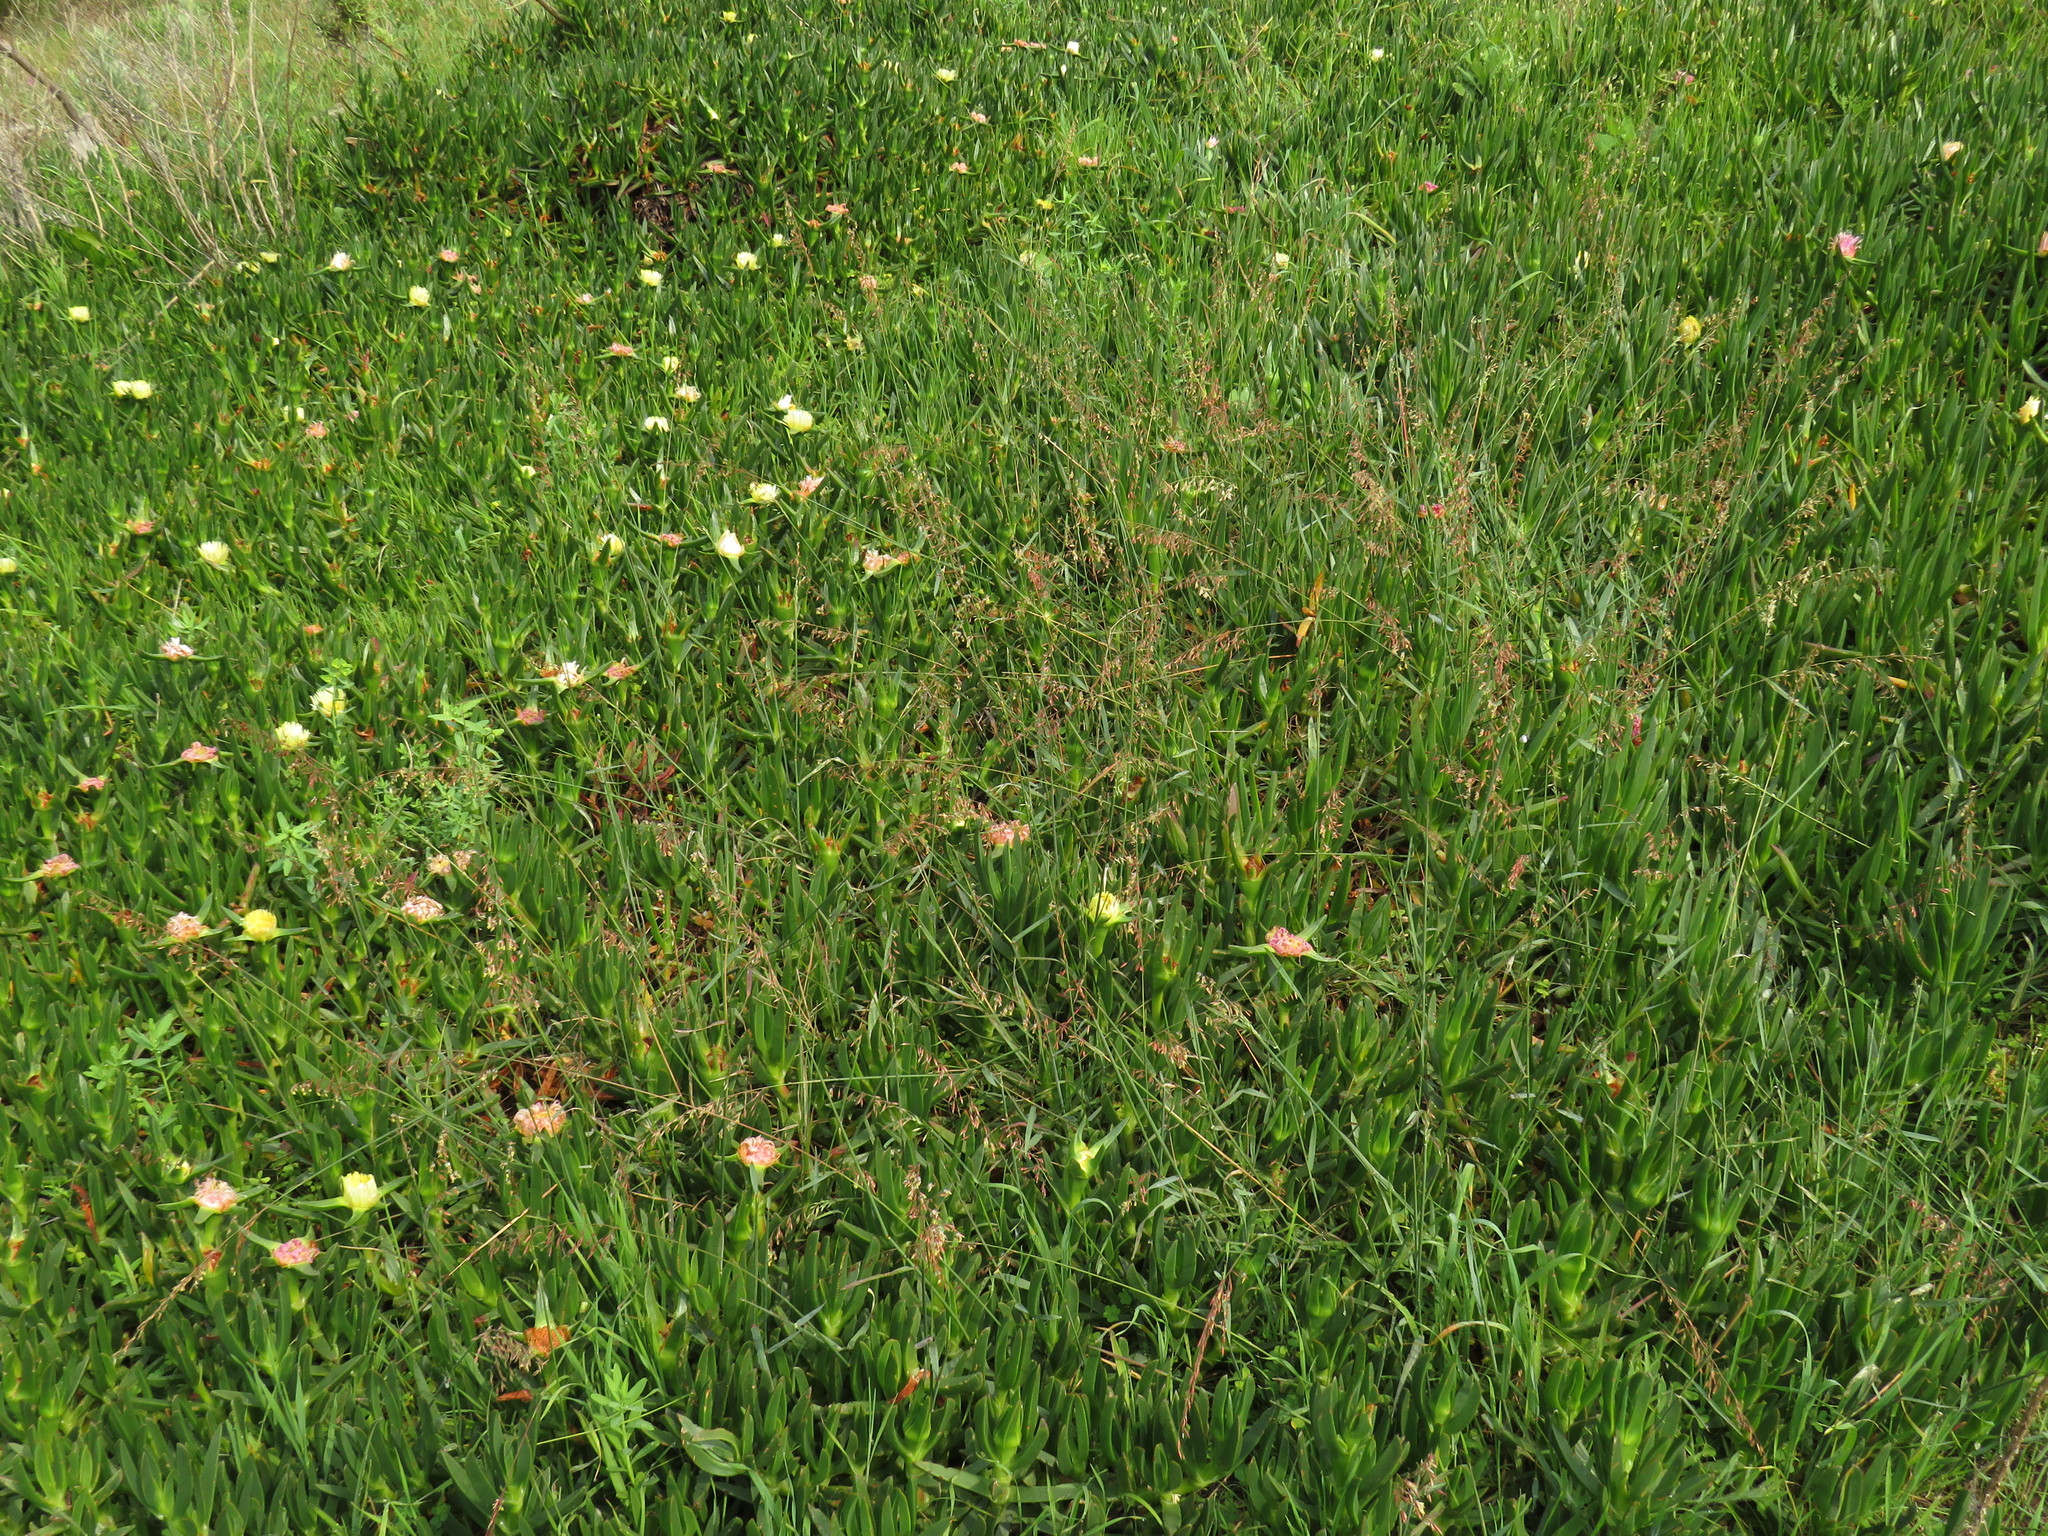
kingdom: Plantae
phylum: Tracheophyta
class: Liliopsida
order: Poales
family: Poaceae
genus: Ehrharta
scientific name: Ehrharta calycina
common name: Perennial veldtgrass
